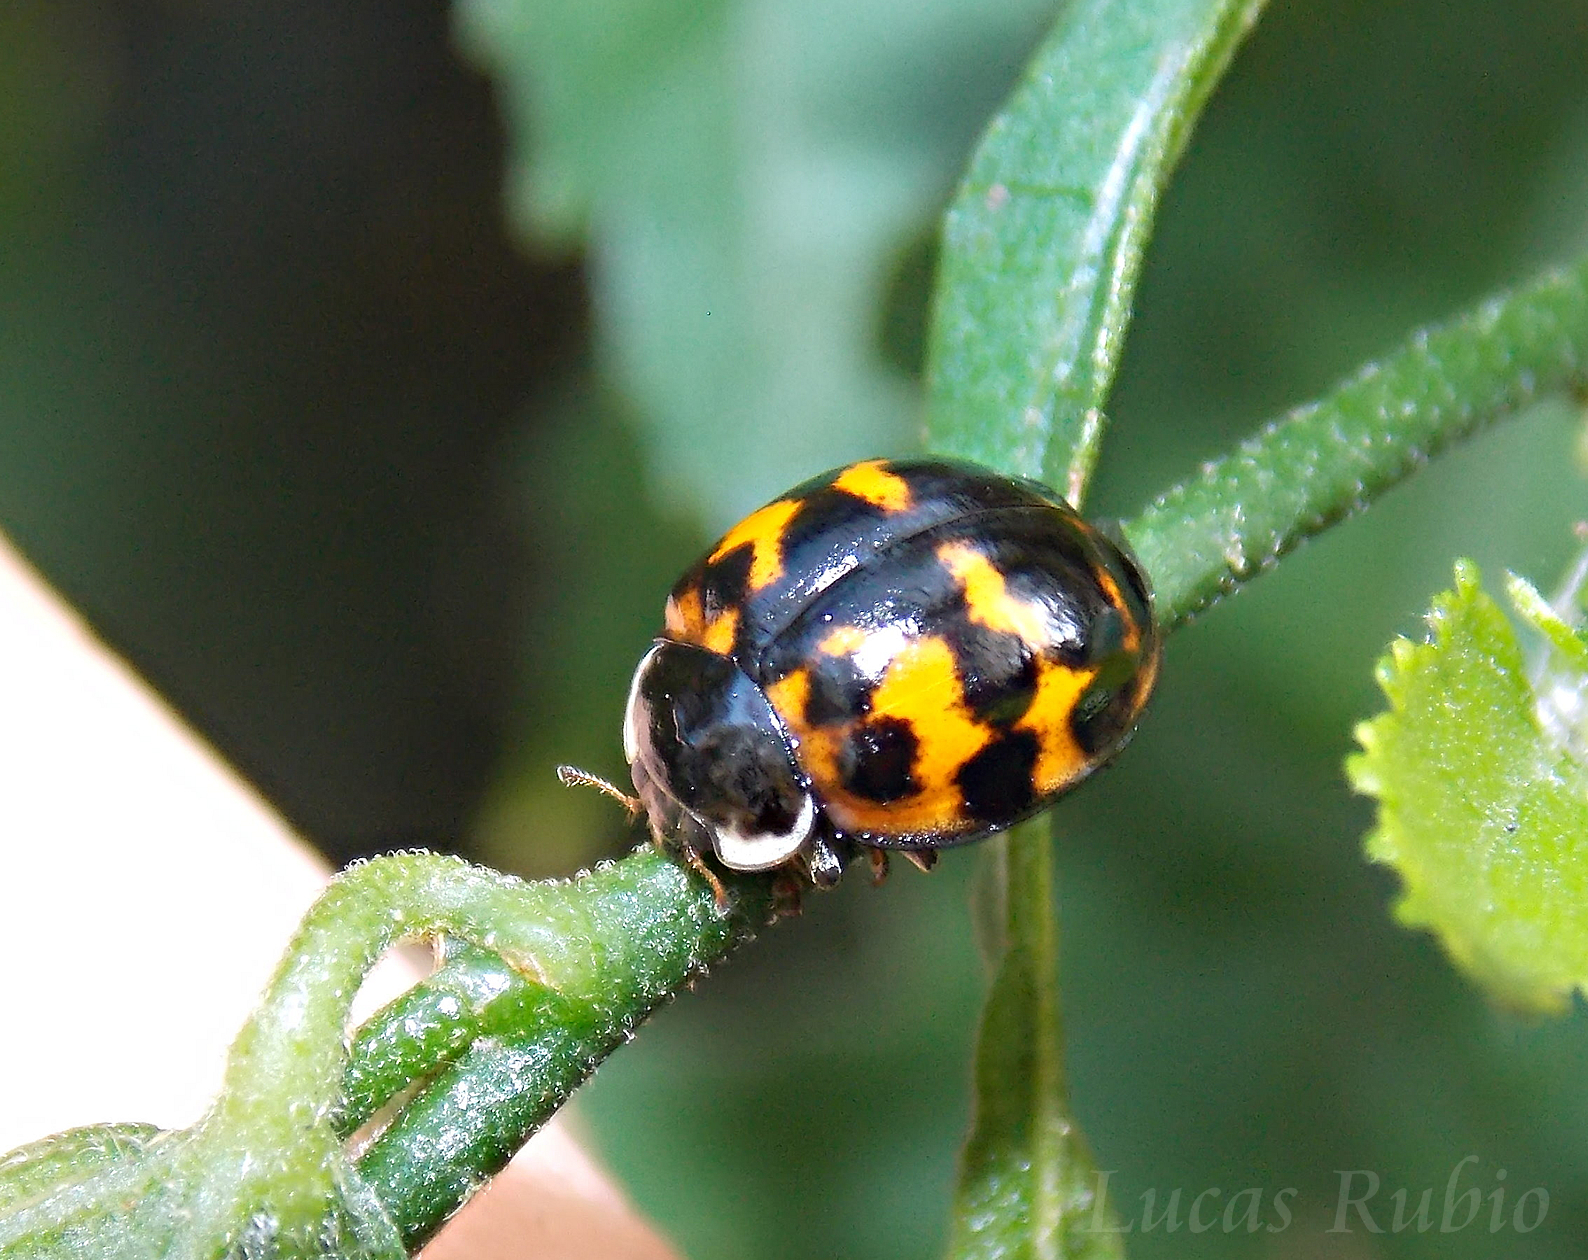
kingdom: Animalia
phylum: Arthropoda
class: Insecta
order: Coleoptera
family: Coccinellidae
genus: Harmonia
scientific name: Harmonia axyridis
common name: Harlequin ladybird
